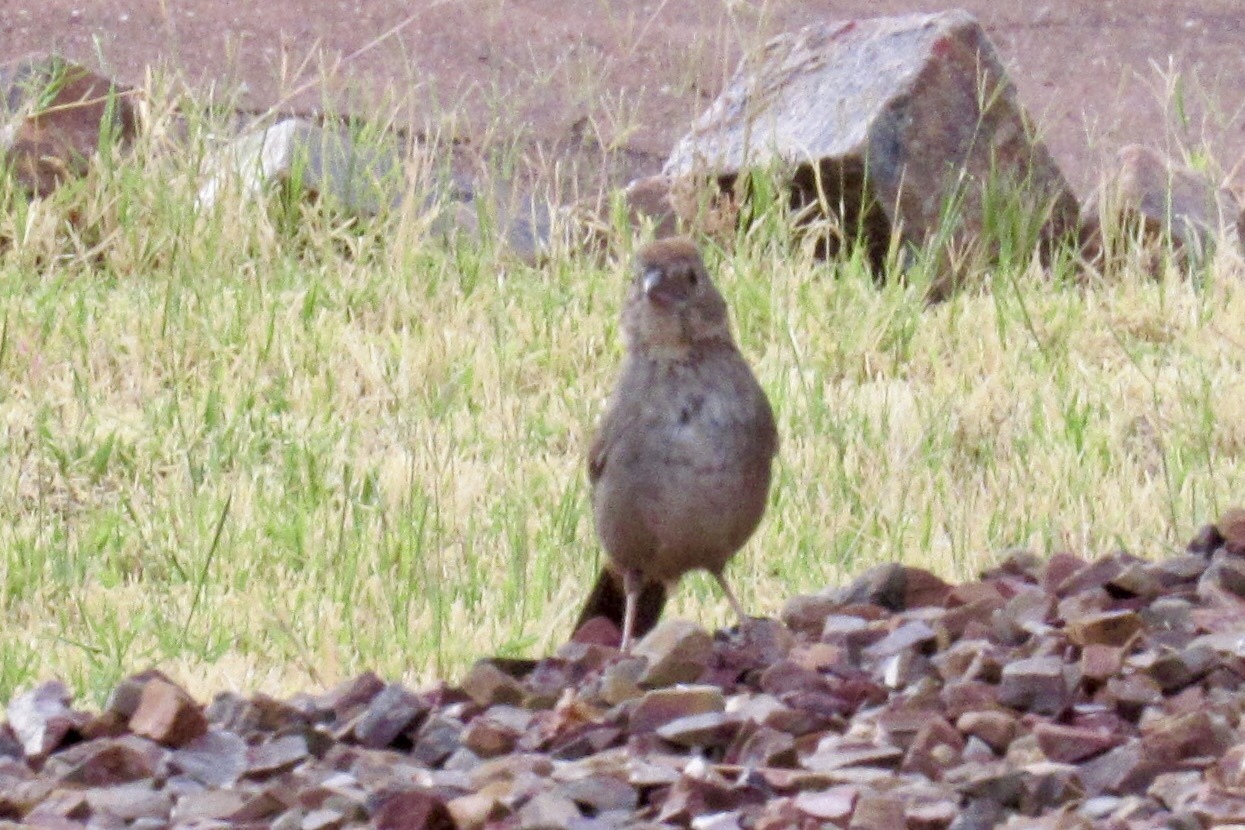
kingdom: Animalia
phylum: Chordata
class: Aves
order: Passeriformes
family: Passerellidae
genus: Melozone
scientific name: Melozone fusca
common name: Canyon towhee
